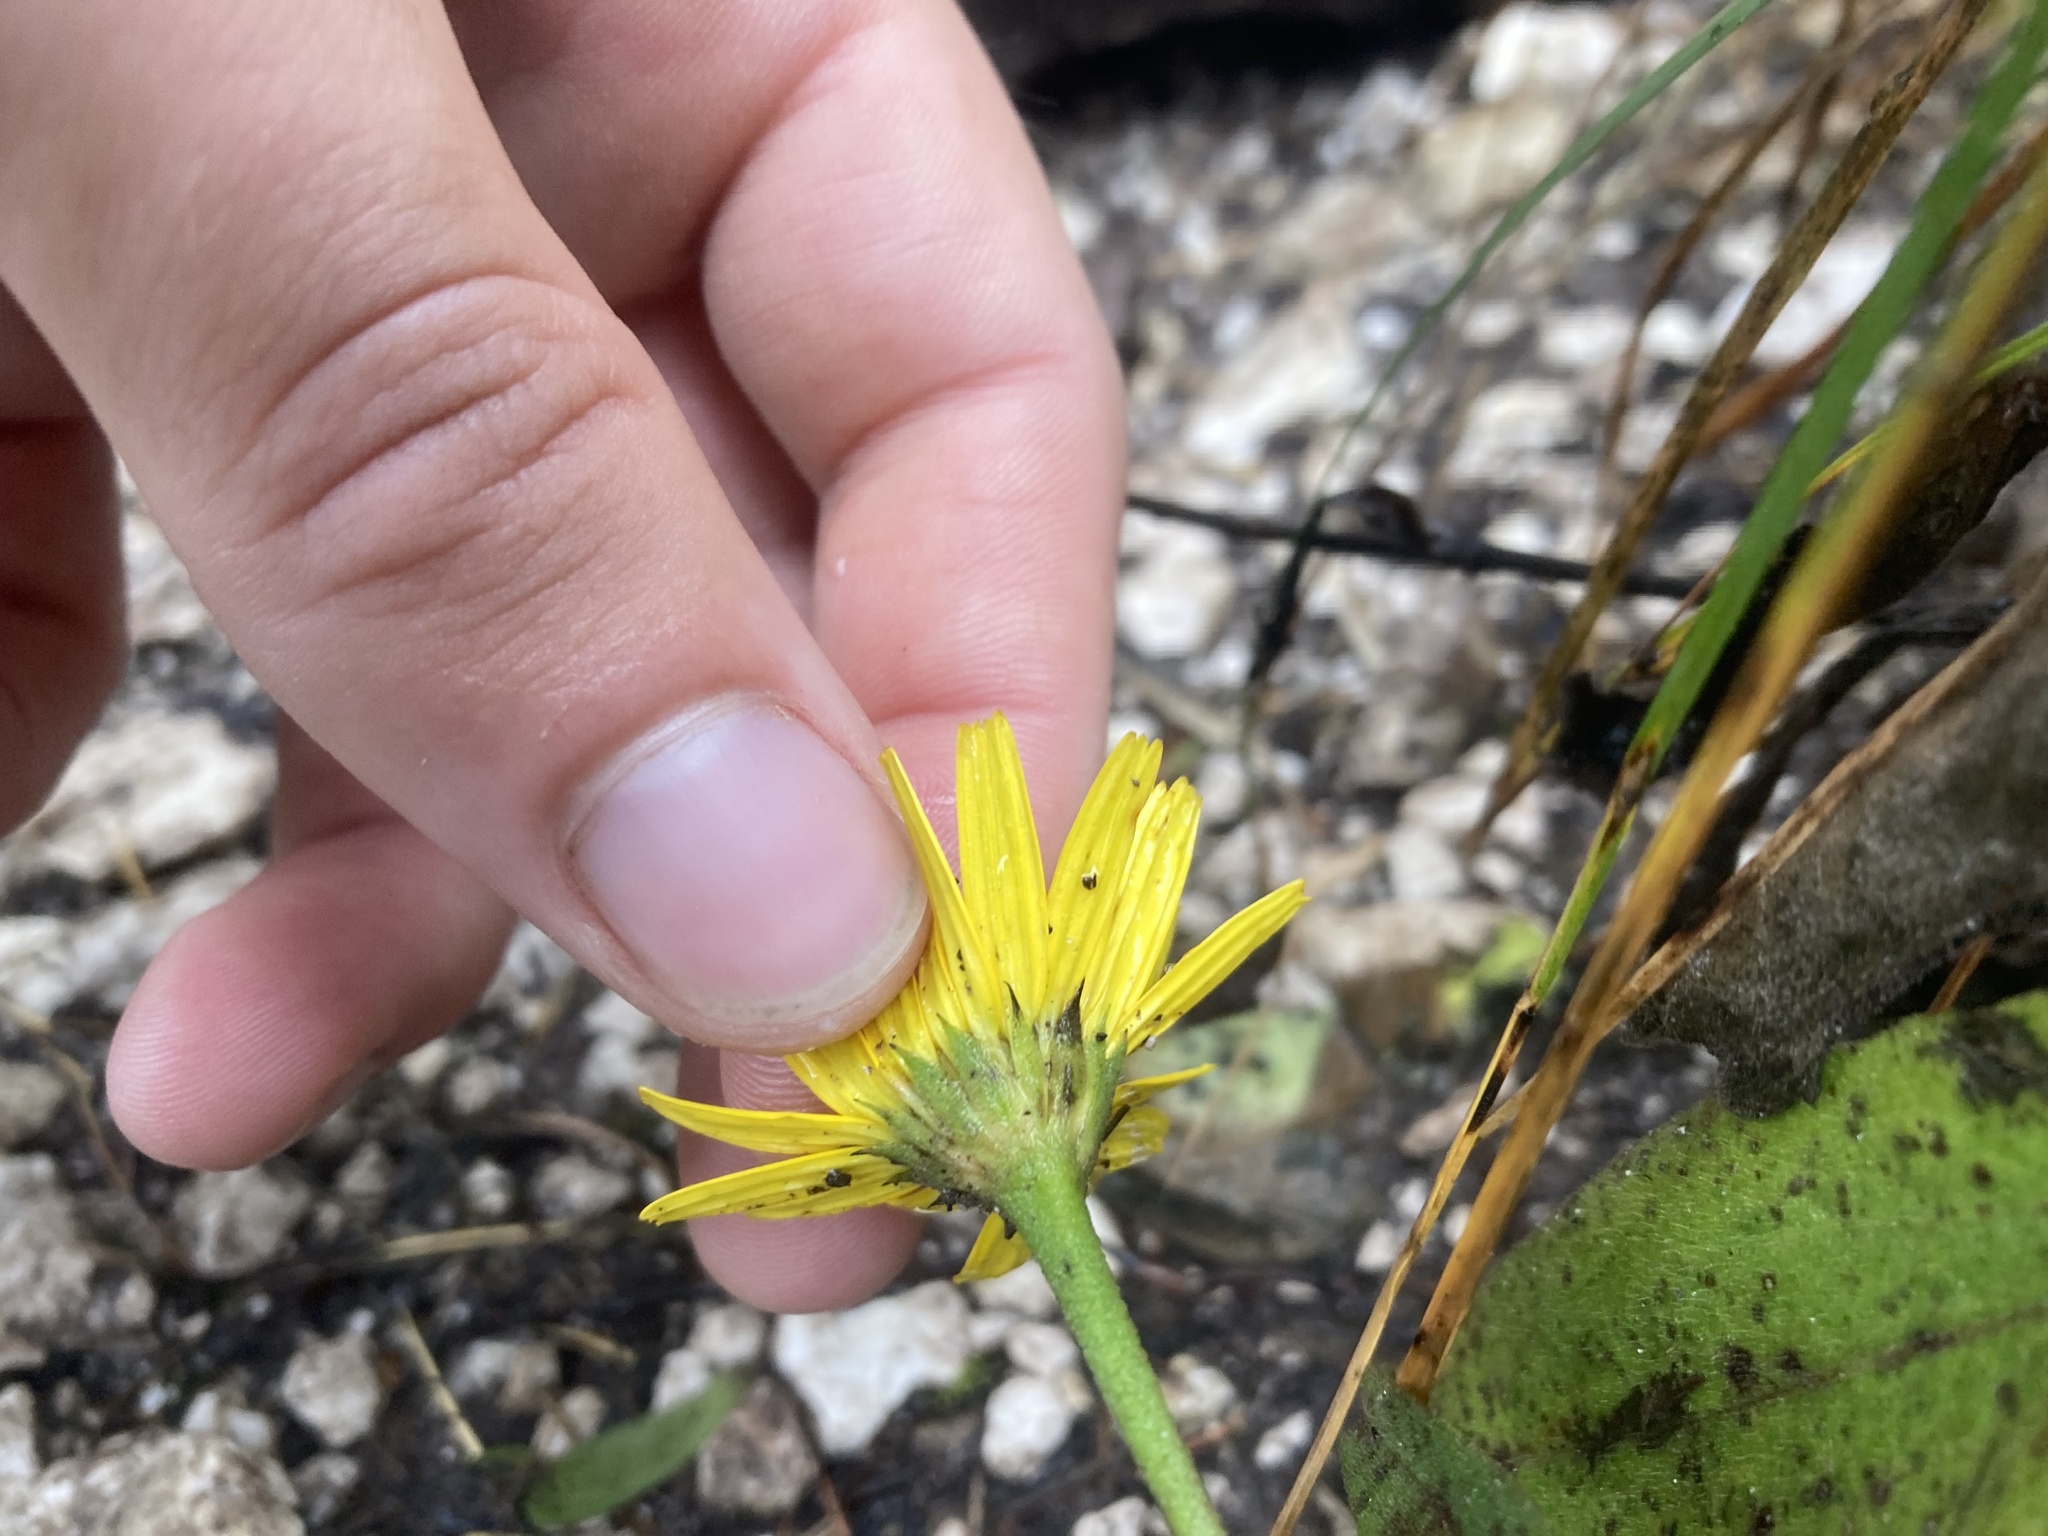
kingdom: Plantae
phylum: Tracheophyta
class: Magnoliopsida
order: Asterales
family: Asteraceae
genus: Buphthalmum
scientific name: Buphthalmum salicifolium
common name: Willow-leaved yellow-oxeye
